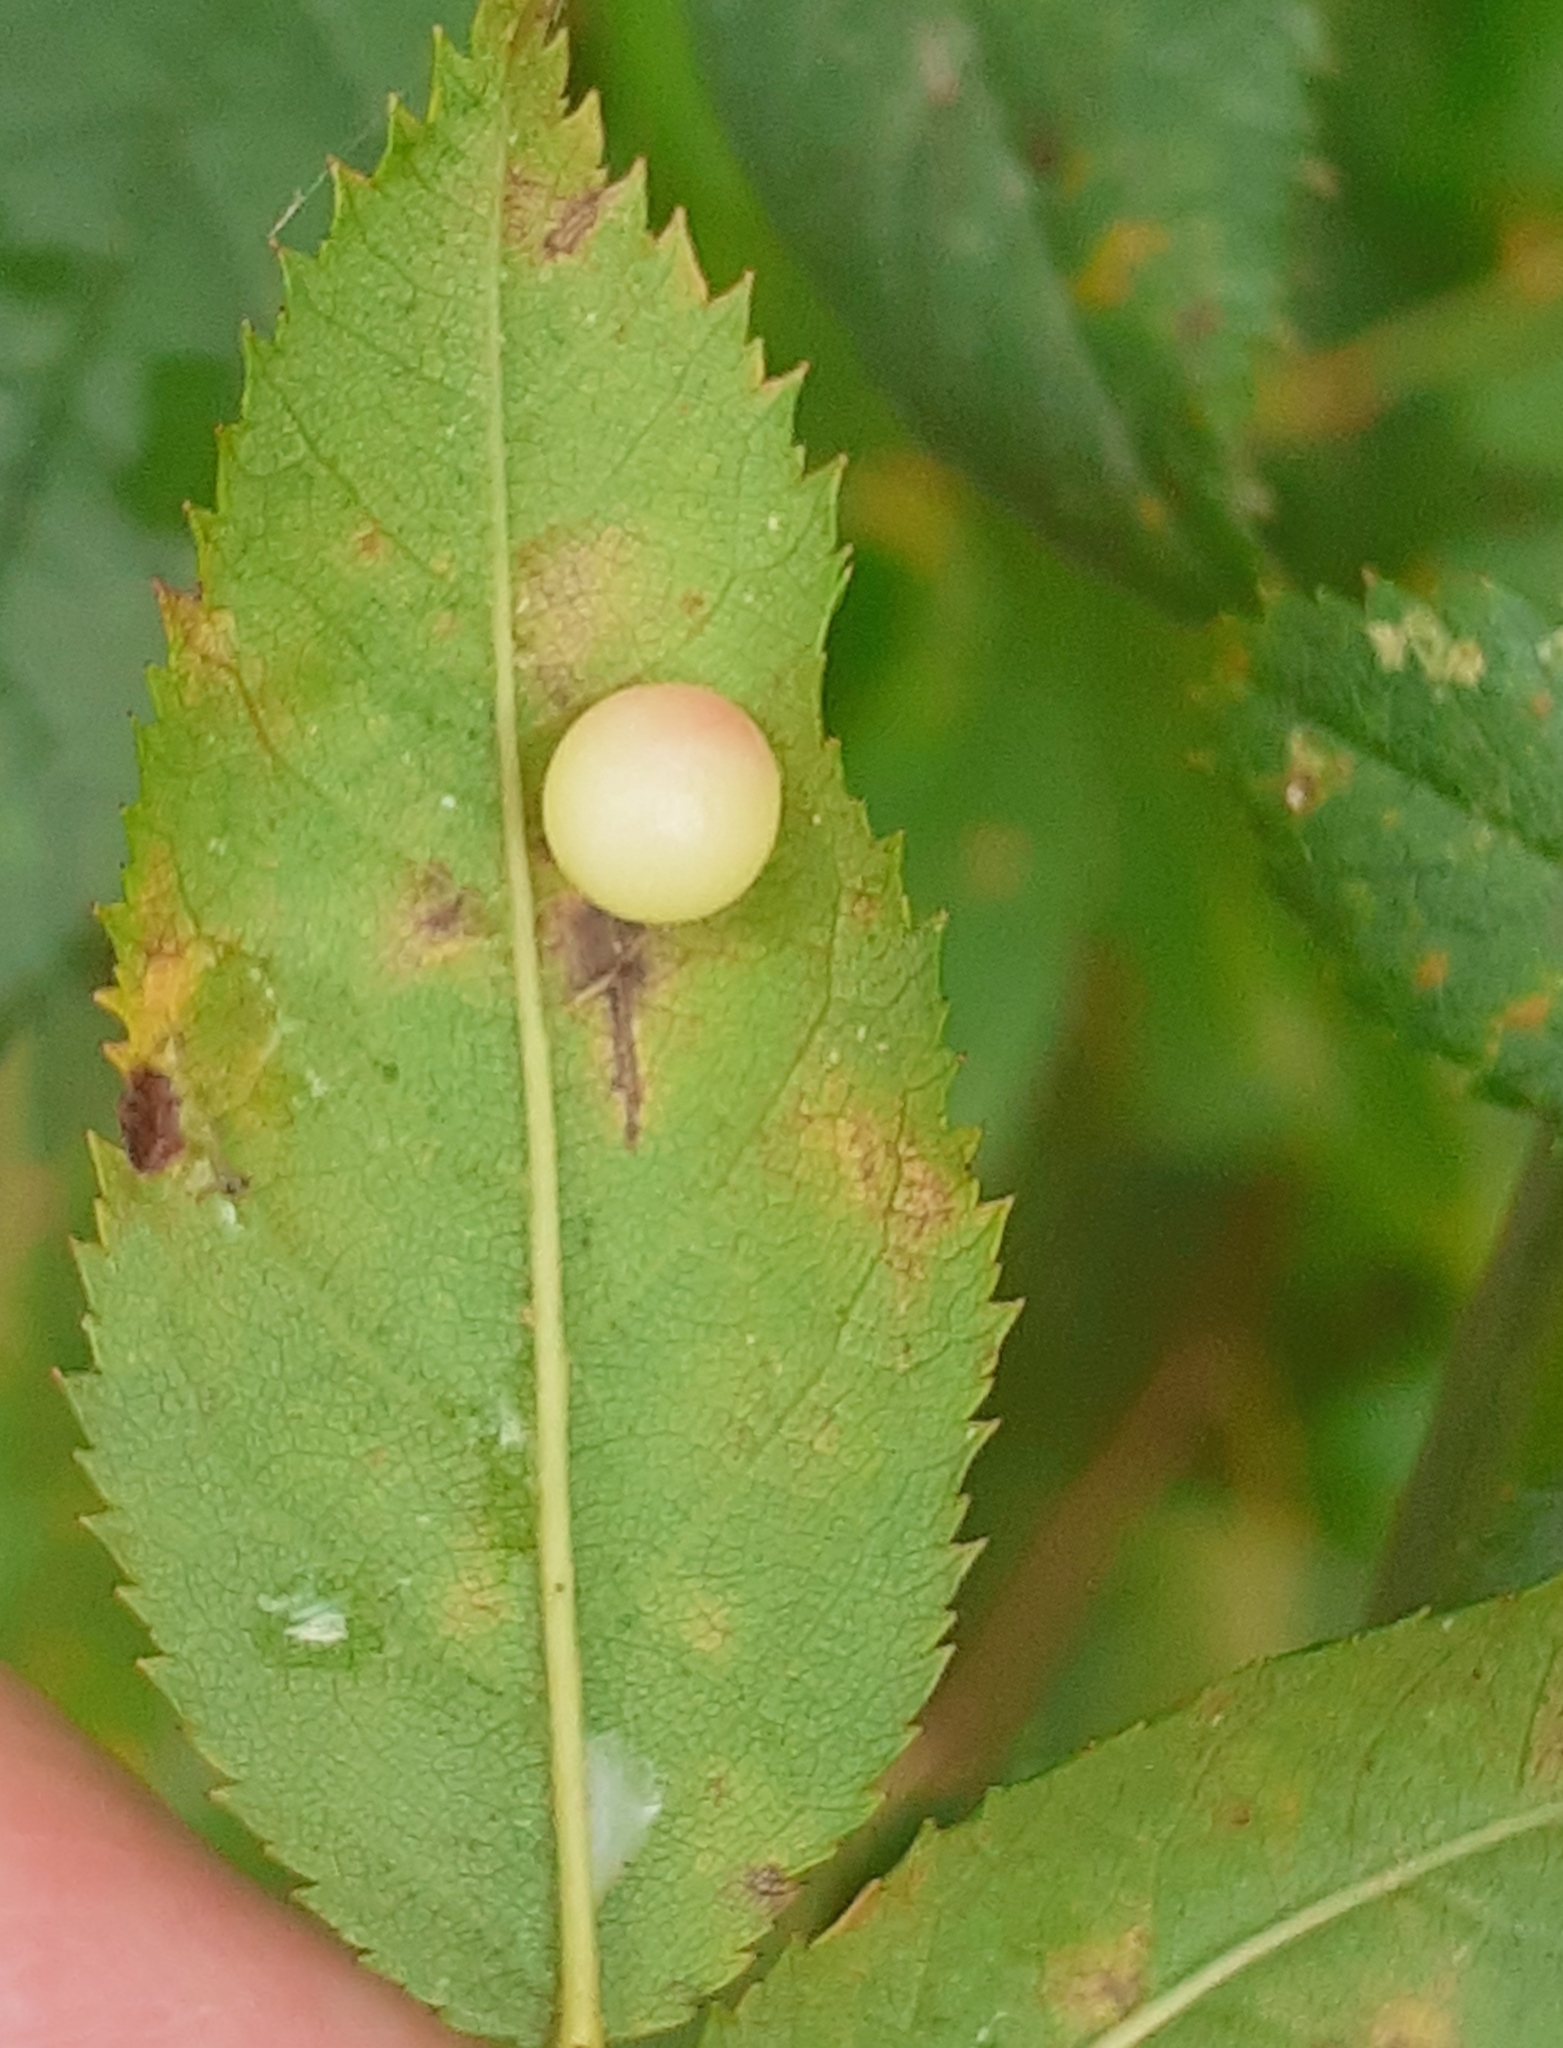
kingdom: Animalia
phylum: Arthropoda
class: Insecta
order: Hymenoptera
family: Cynipidae
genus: Diplolepis
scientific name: Diplolepis
